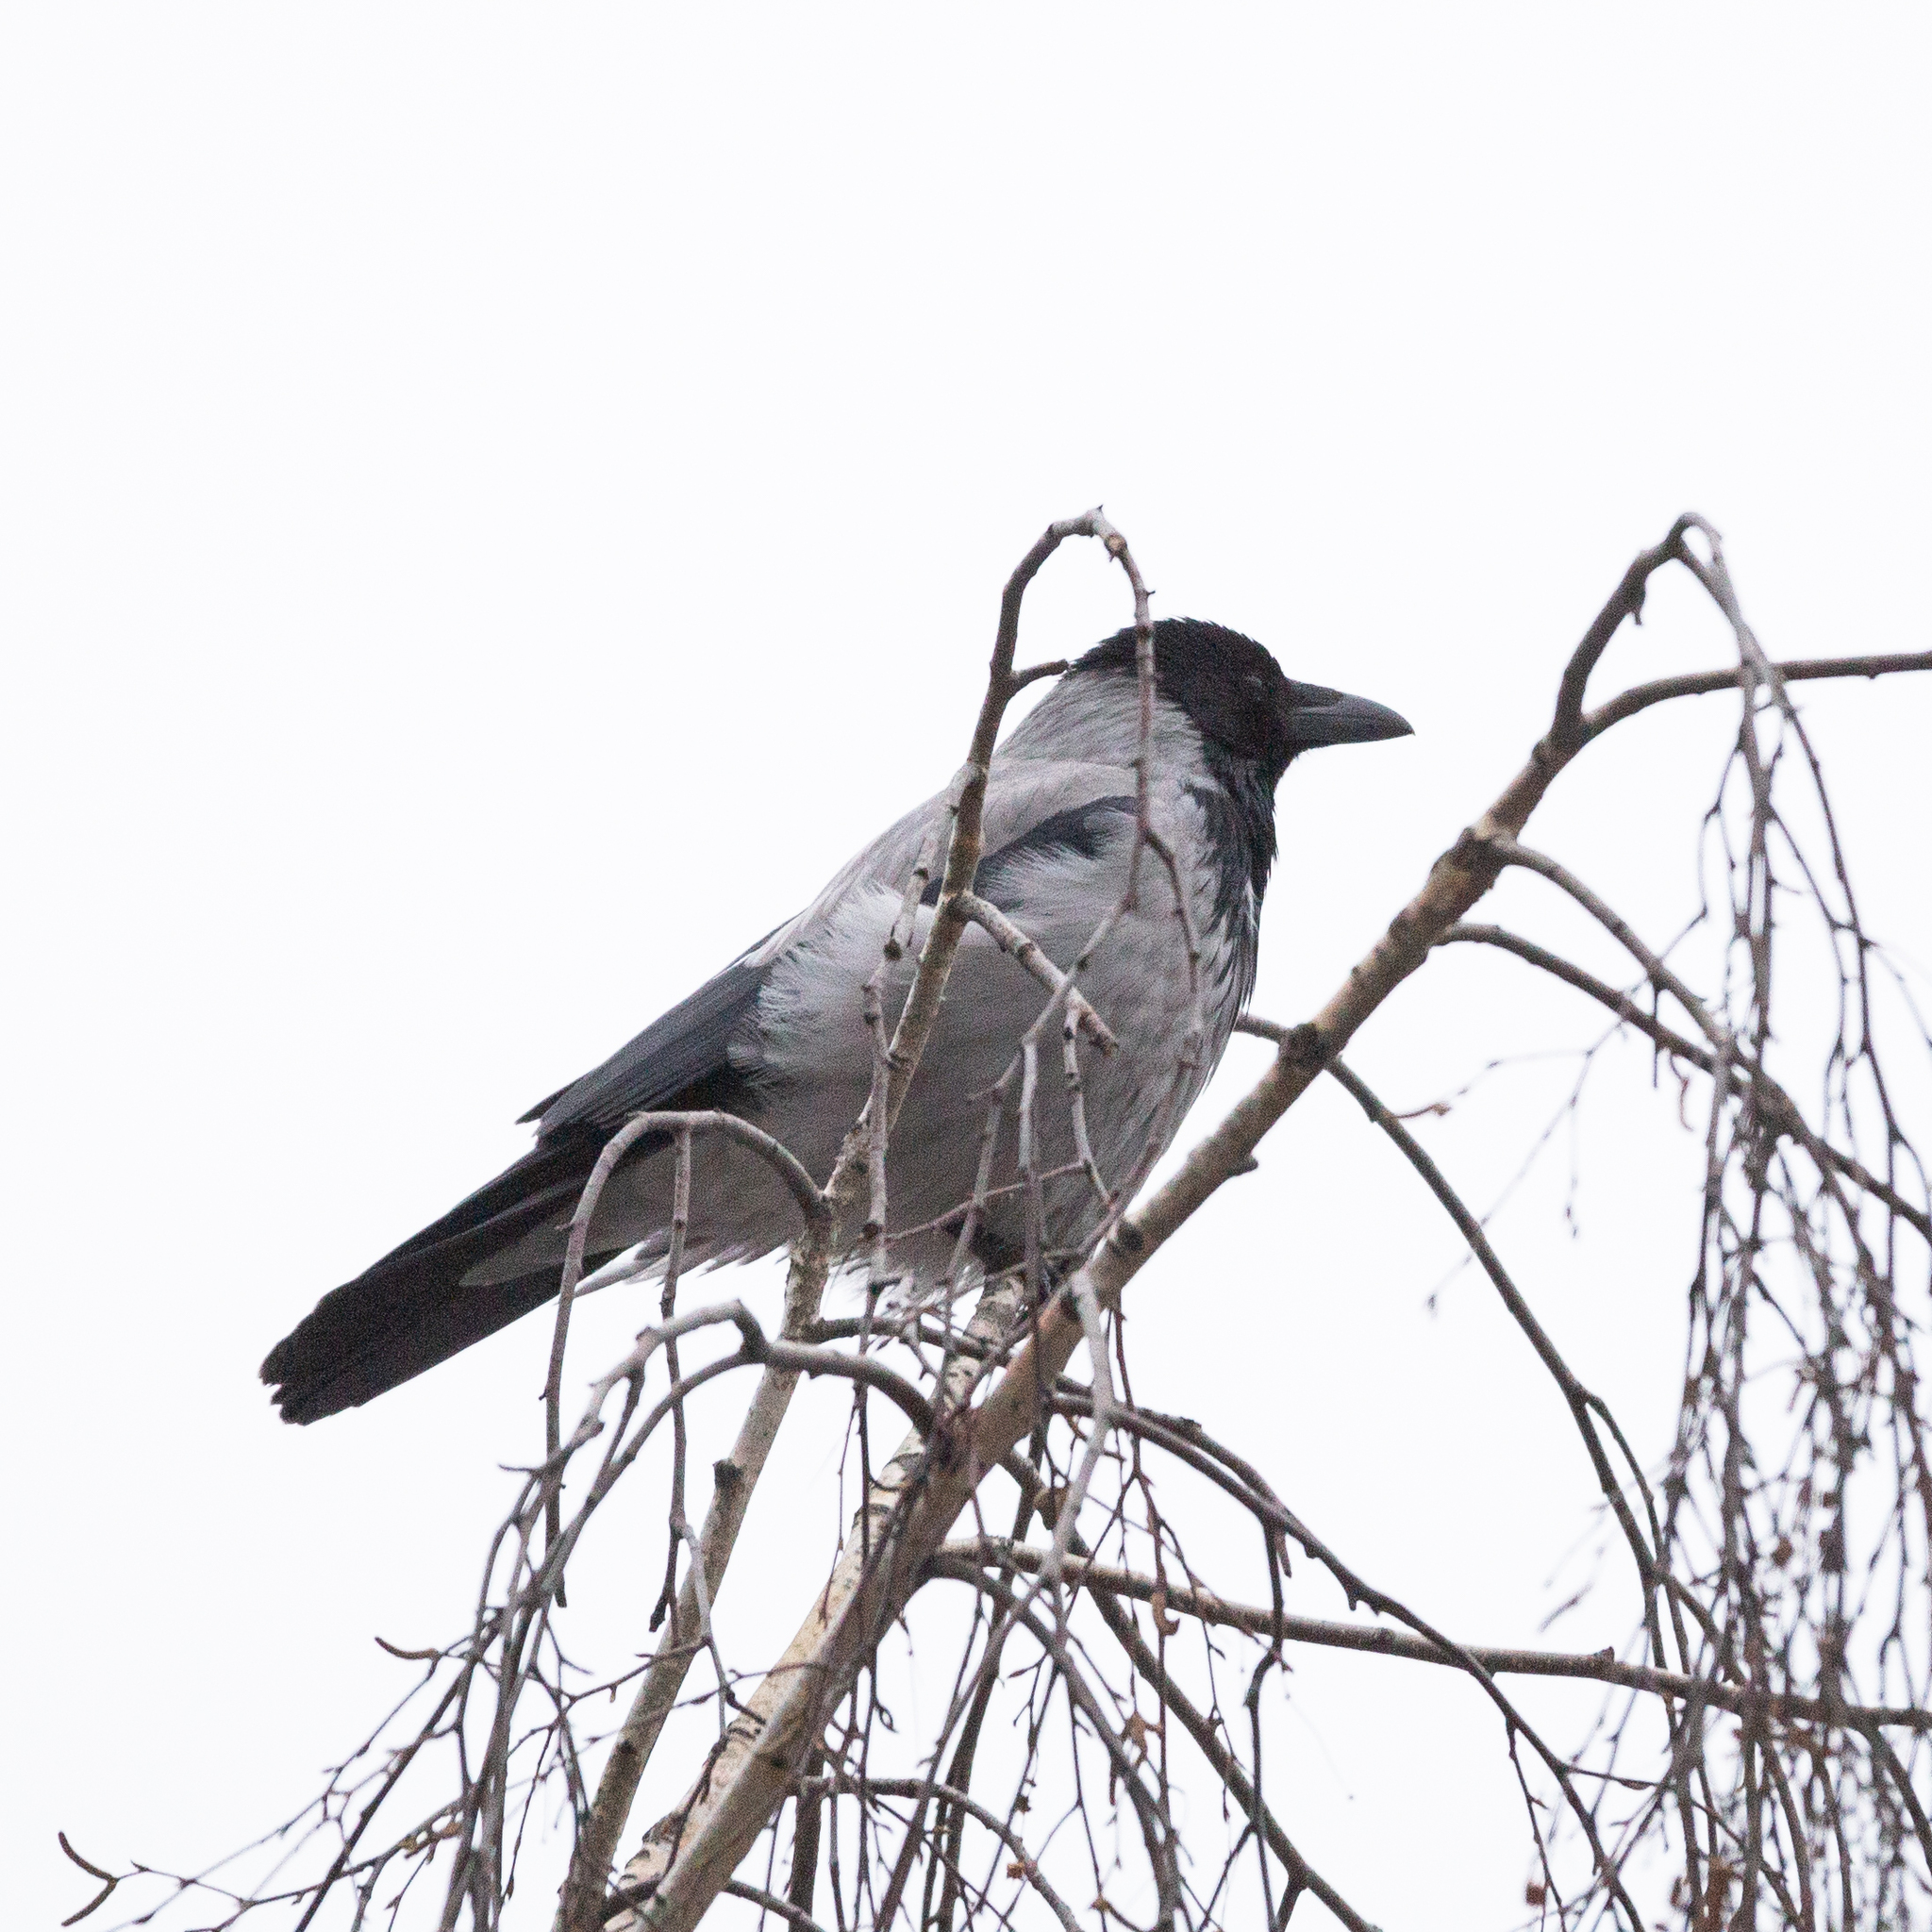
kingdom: Animalia
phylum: Chordata
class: Aves
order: Passeriformes
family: Corvidae
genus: Corvus
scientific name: Corvus cornix
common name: Hooded crow
